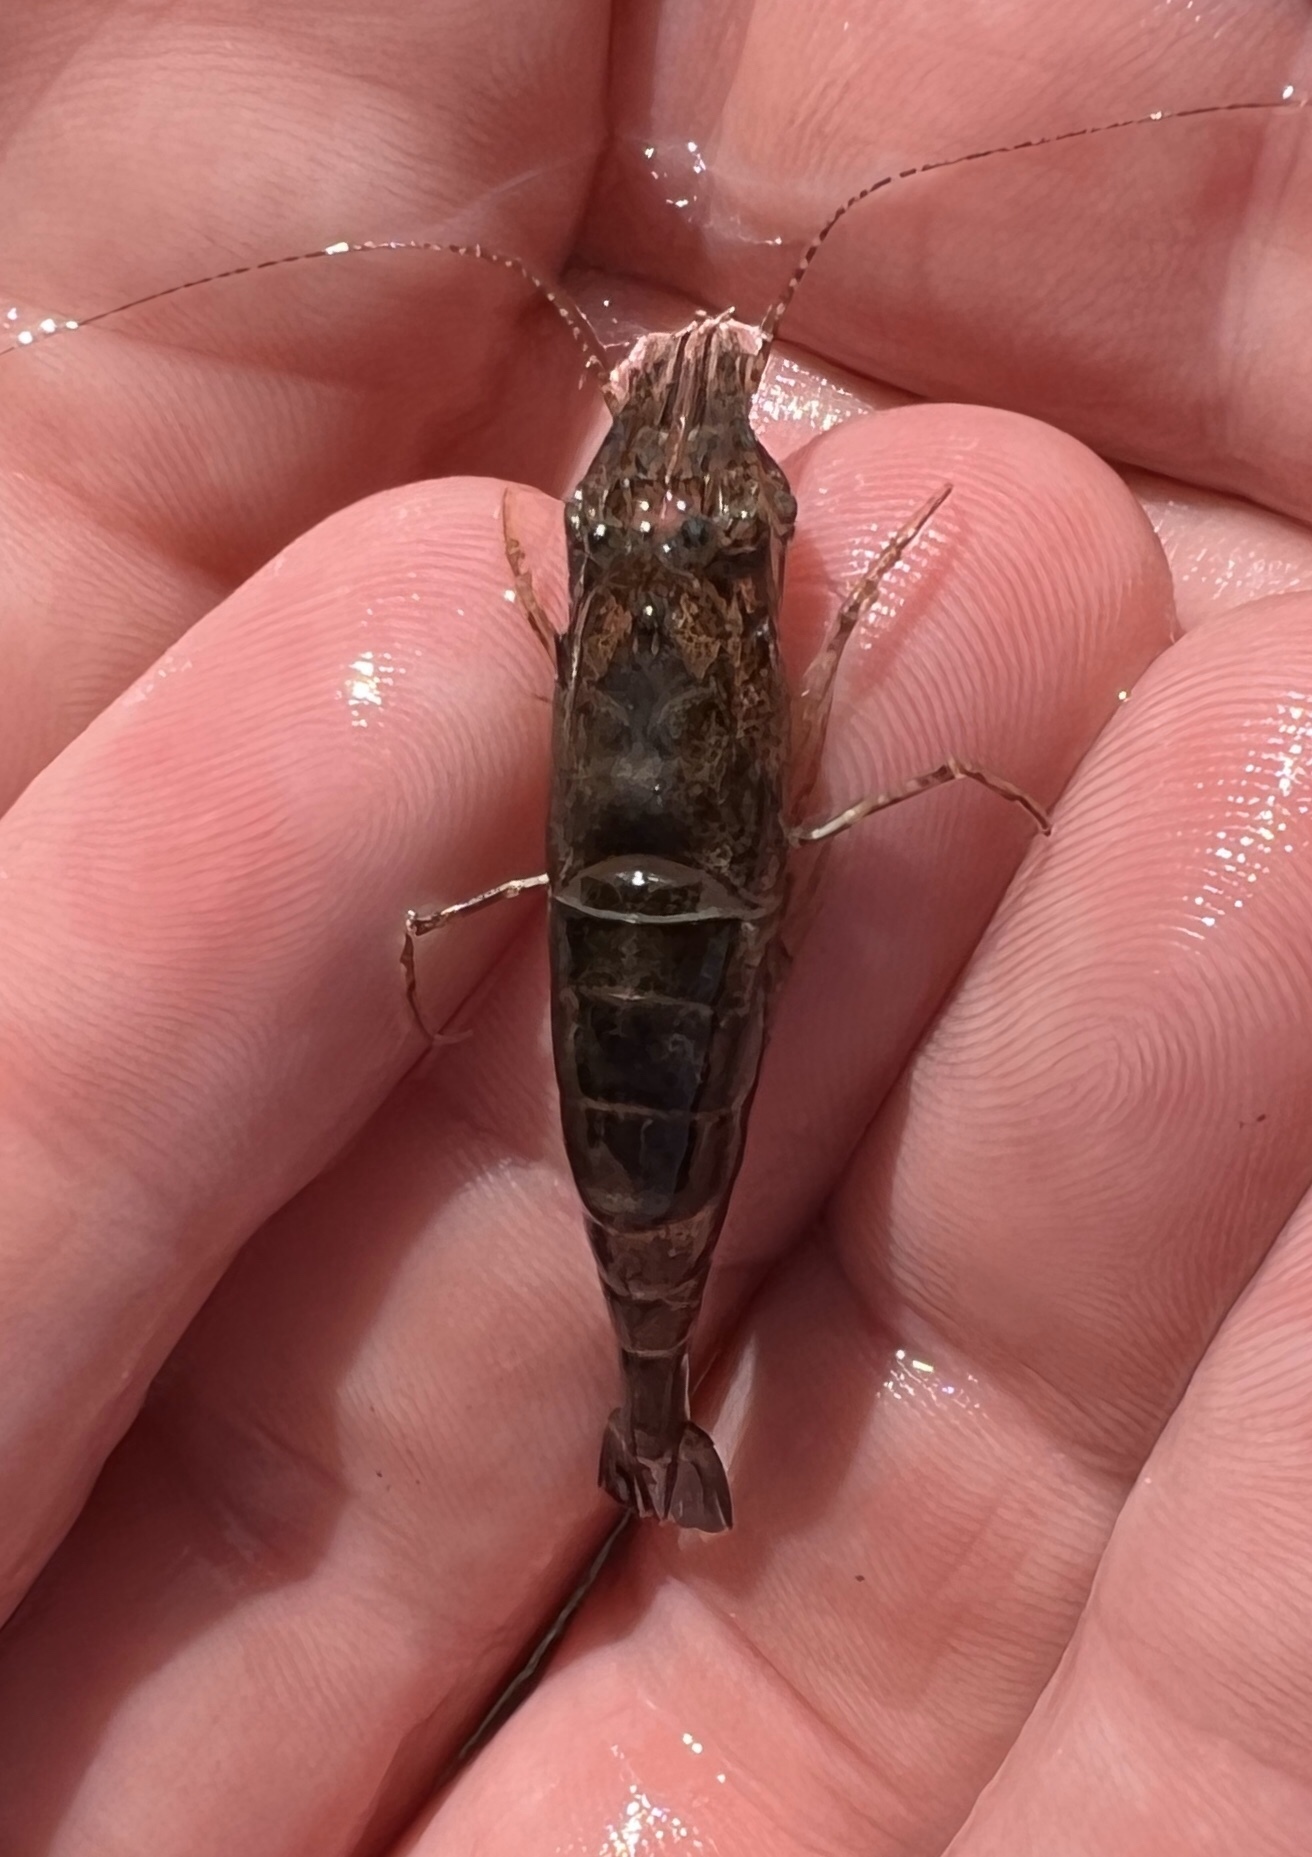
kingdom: Animalia
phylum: Arthropoda
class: Malacostraca
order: Decapoda
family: Crangonidae
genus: Crangon
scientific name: Crangon septemspinosa
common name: Bail shrimp
